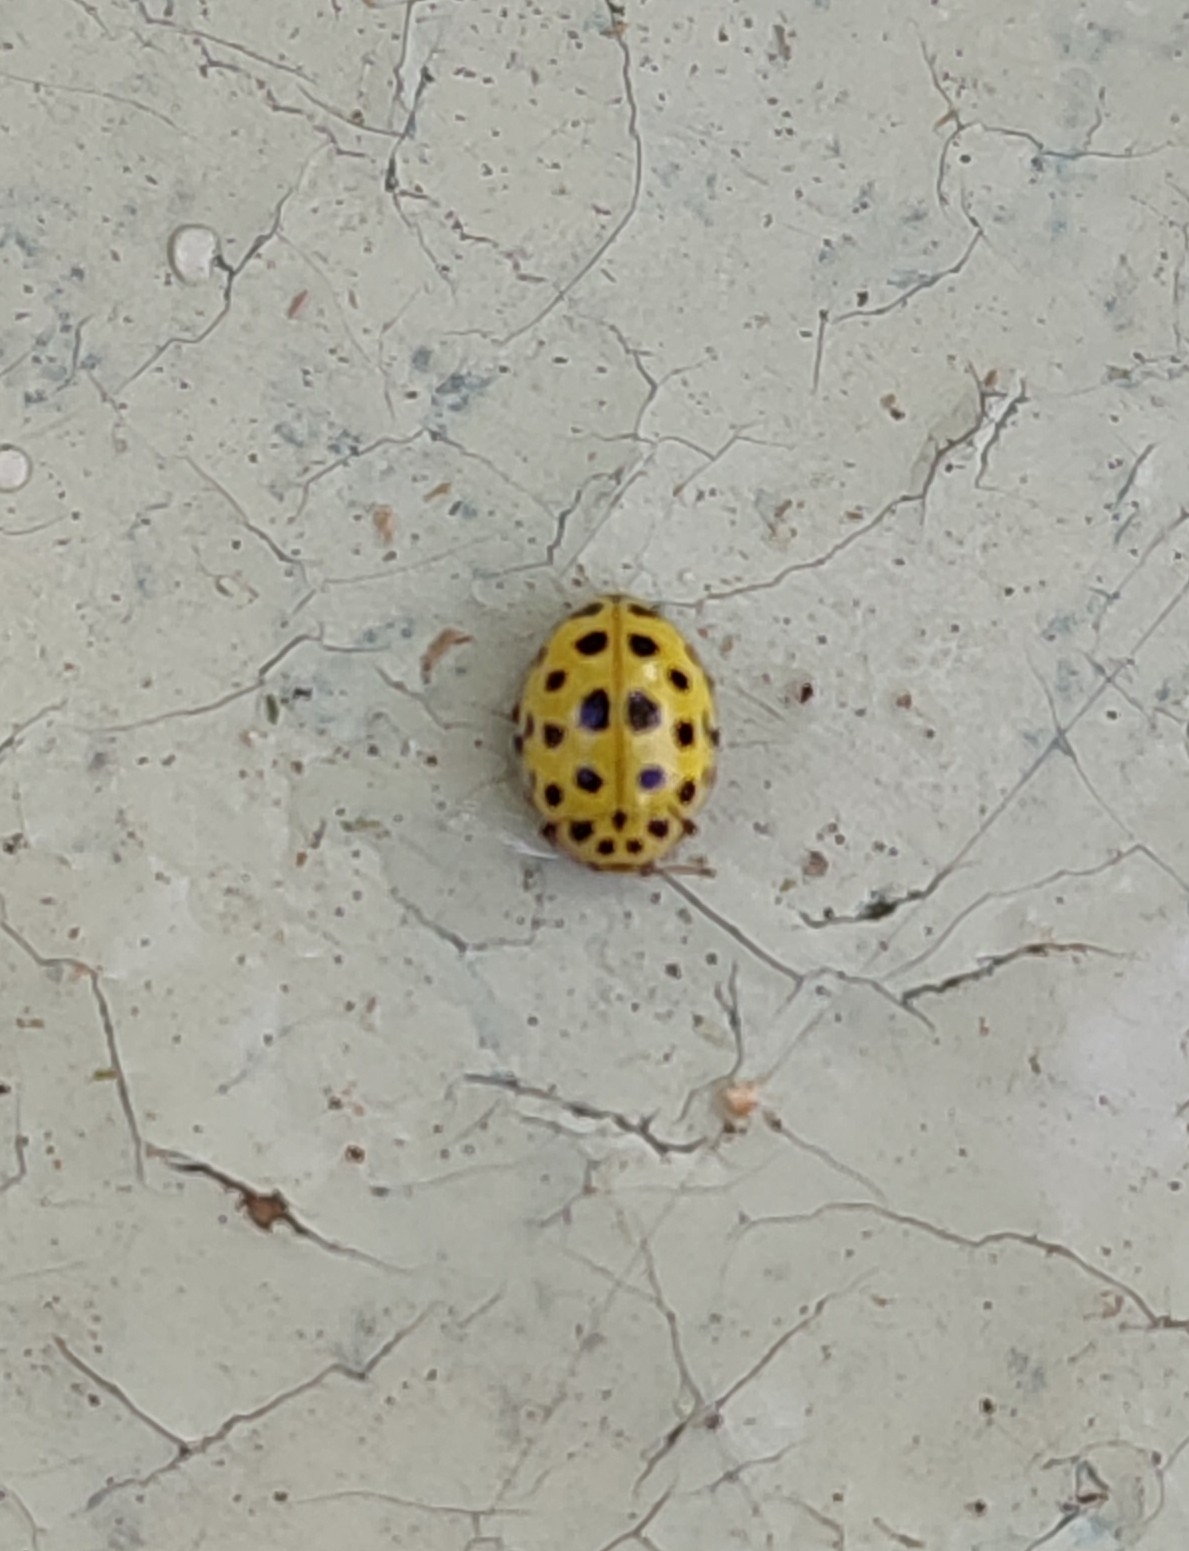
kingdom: Animalia
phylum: Arthropoda
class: Insecta
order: Coleoptera
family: Coccinellidae
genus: Psyllobora
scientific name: Psyllobora vigintiduopunctata
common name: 22-spot ladybird
